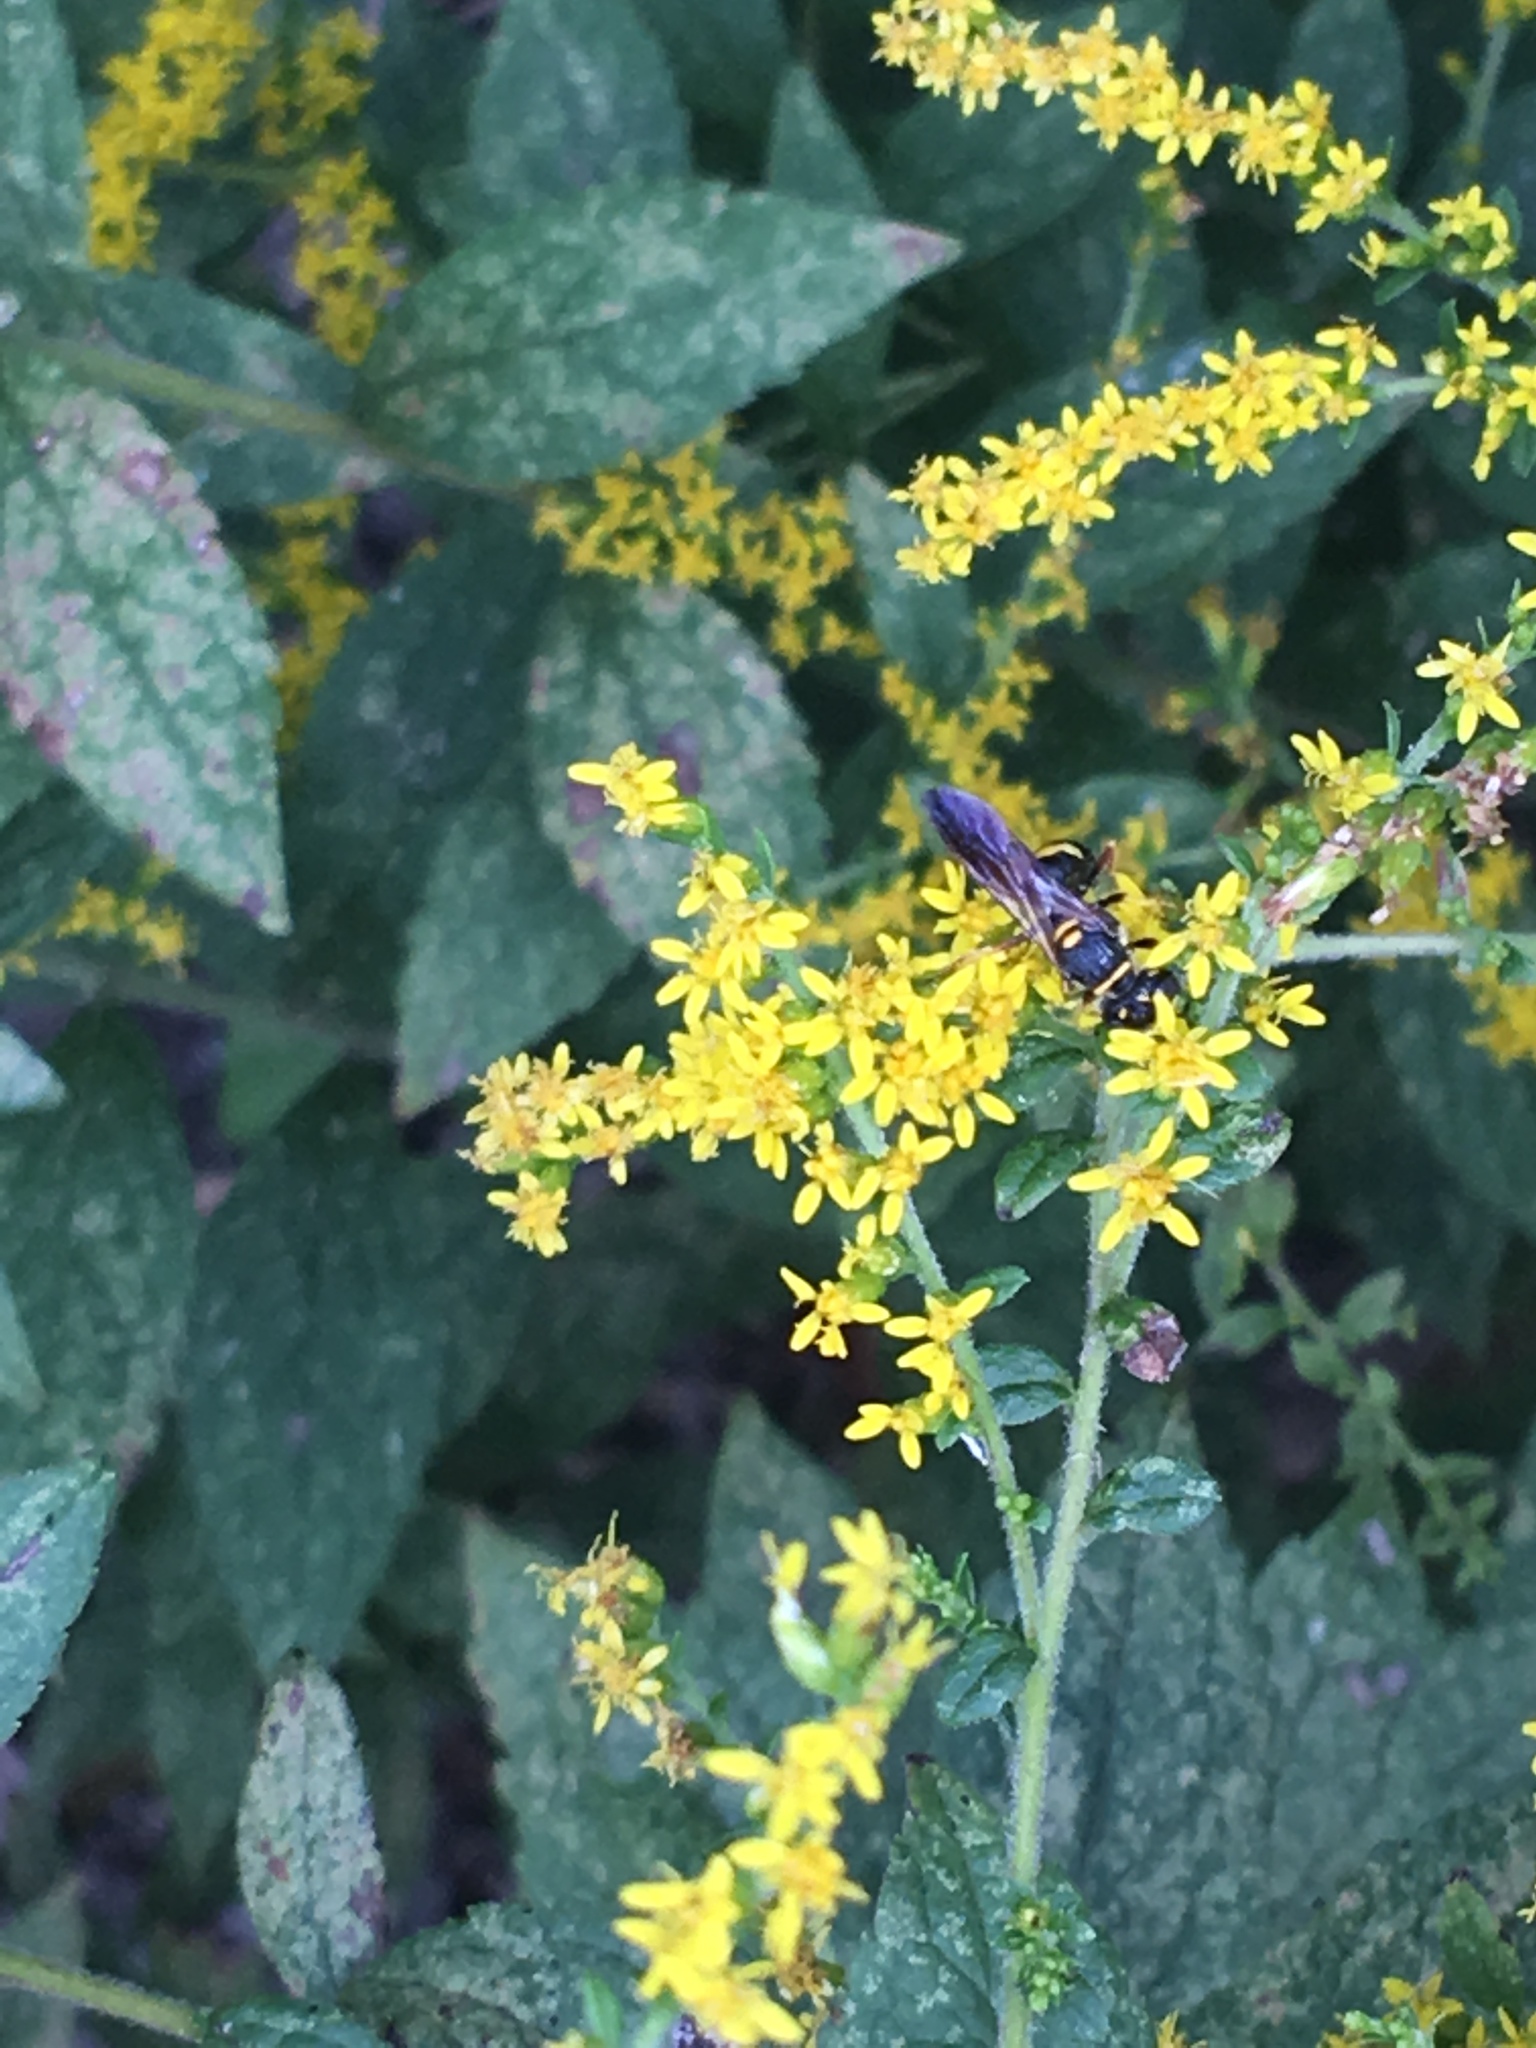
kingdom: Animalia
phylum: Arthropoda
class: Insecta
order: Hymenoptera
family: Crabronidae
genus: Philanthus
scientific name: Philanthus gibbosus
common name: Humped beewolf
